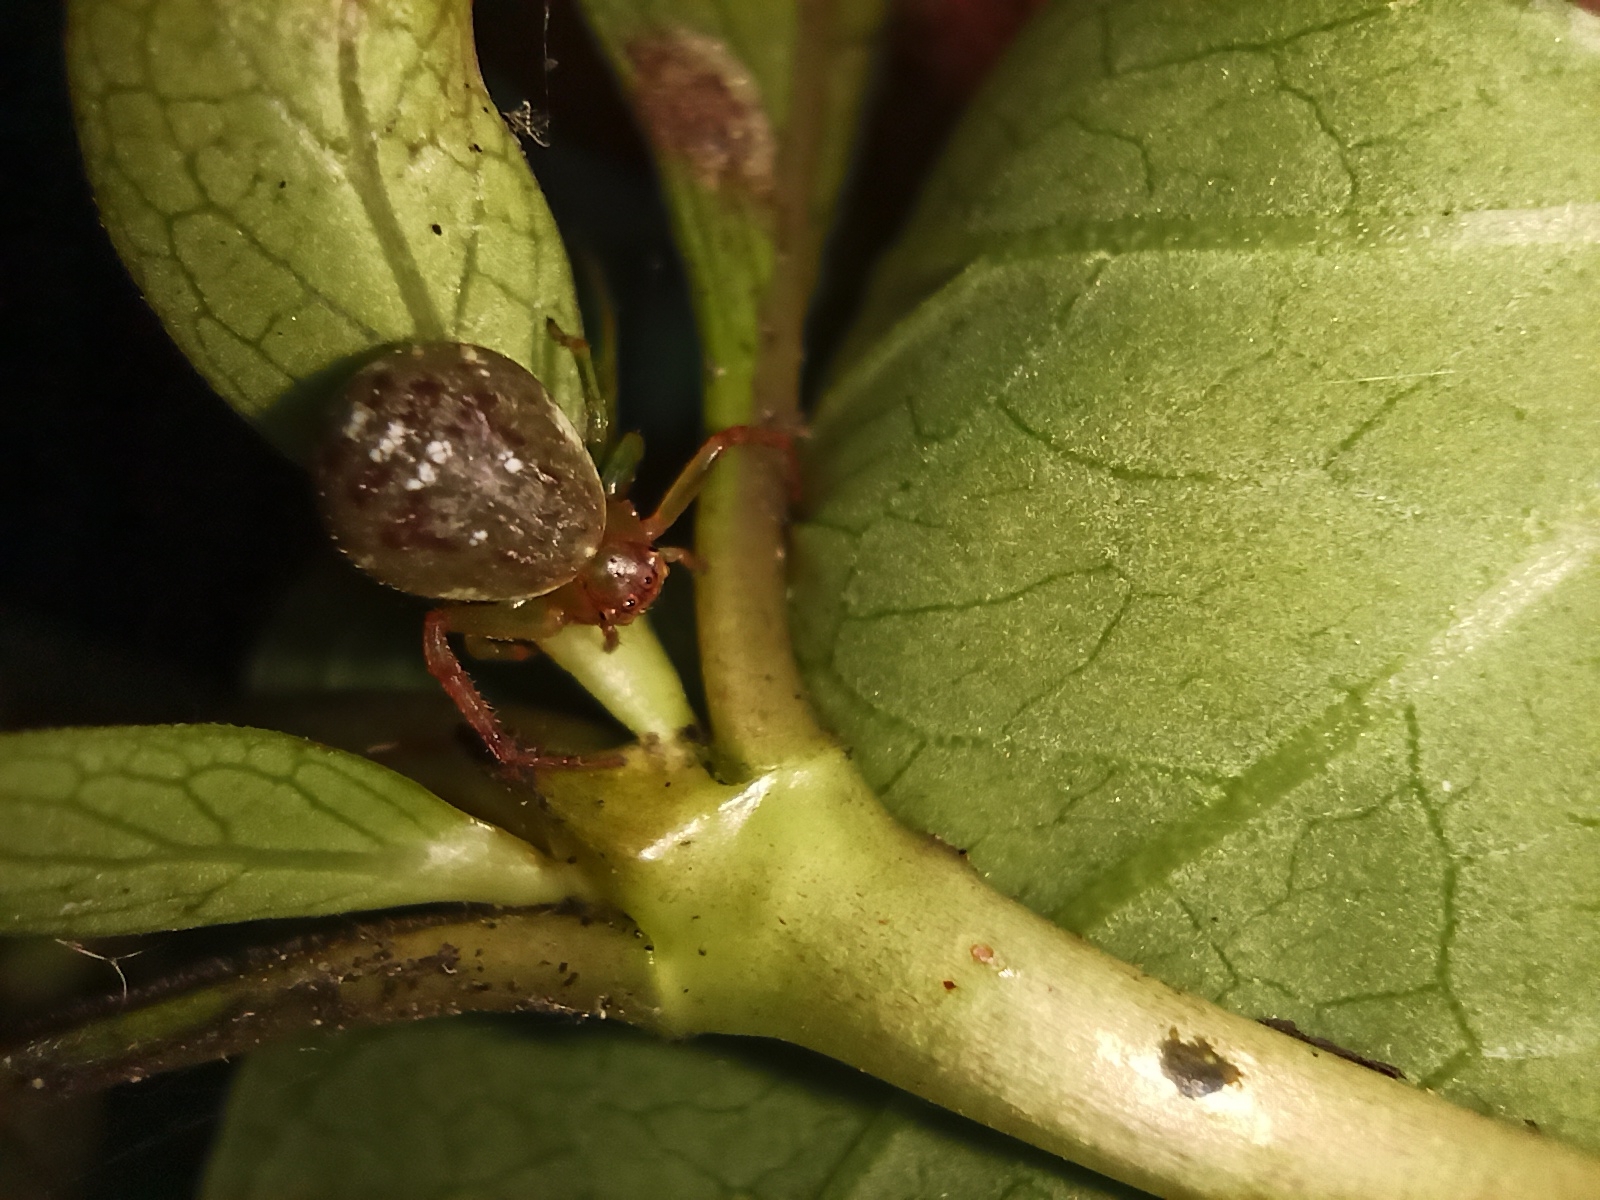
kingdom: Animalia
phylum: Arthropoda
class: Arachnida
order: Araneae
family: Thomisidae
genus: Diaea
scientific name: Diaea ambara
